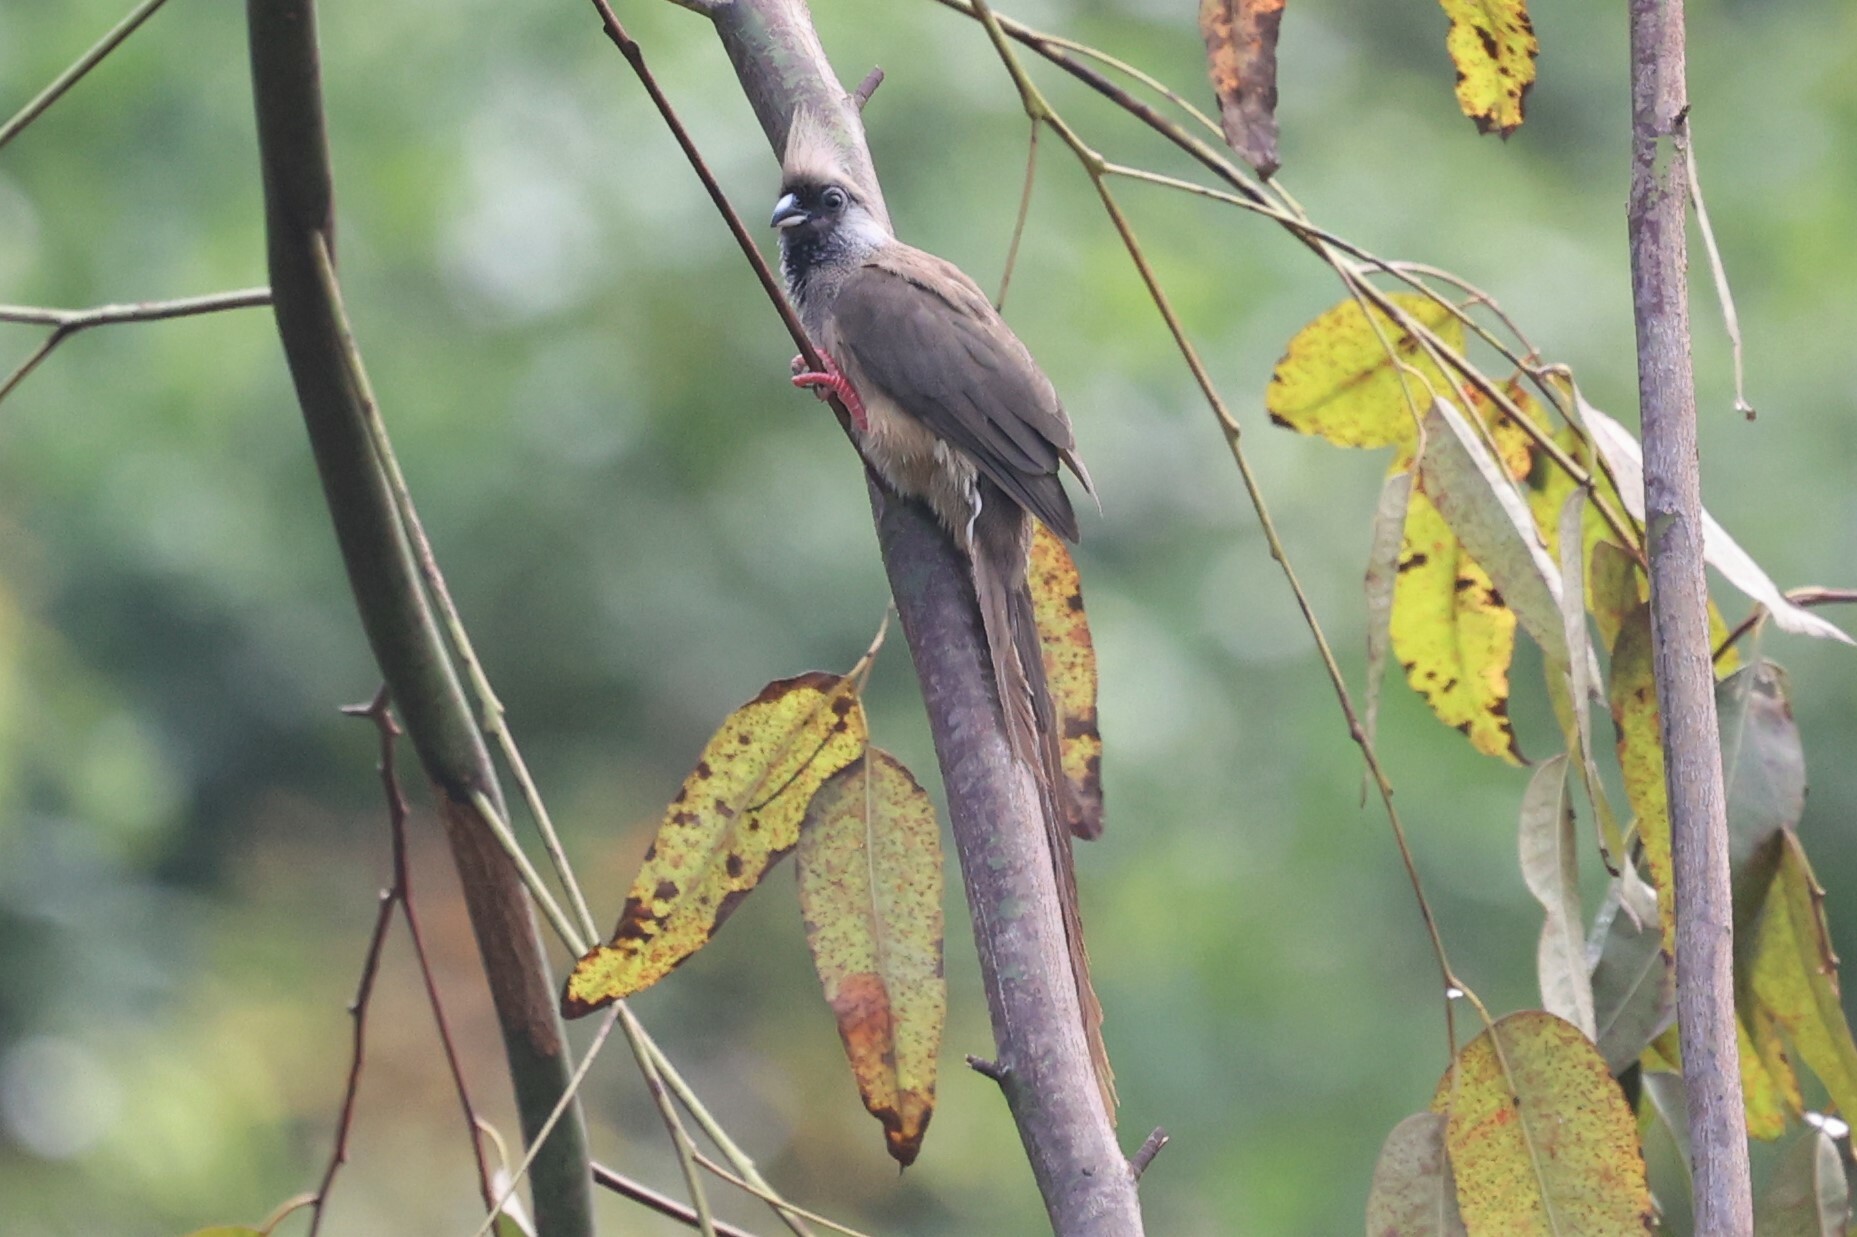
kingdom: Animalia
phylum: Chordata
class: Aves
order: Coliiformes
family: Coliidae
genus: Colius
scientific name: Colius striatus
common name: Speckled mousebird
